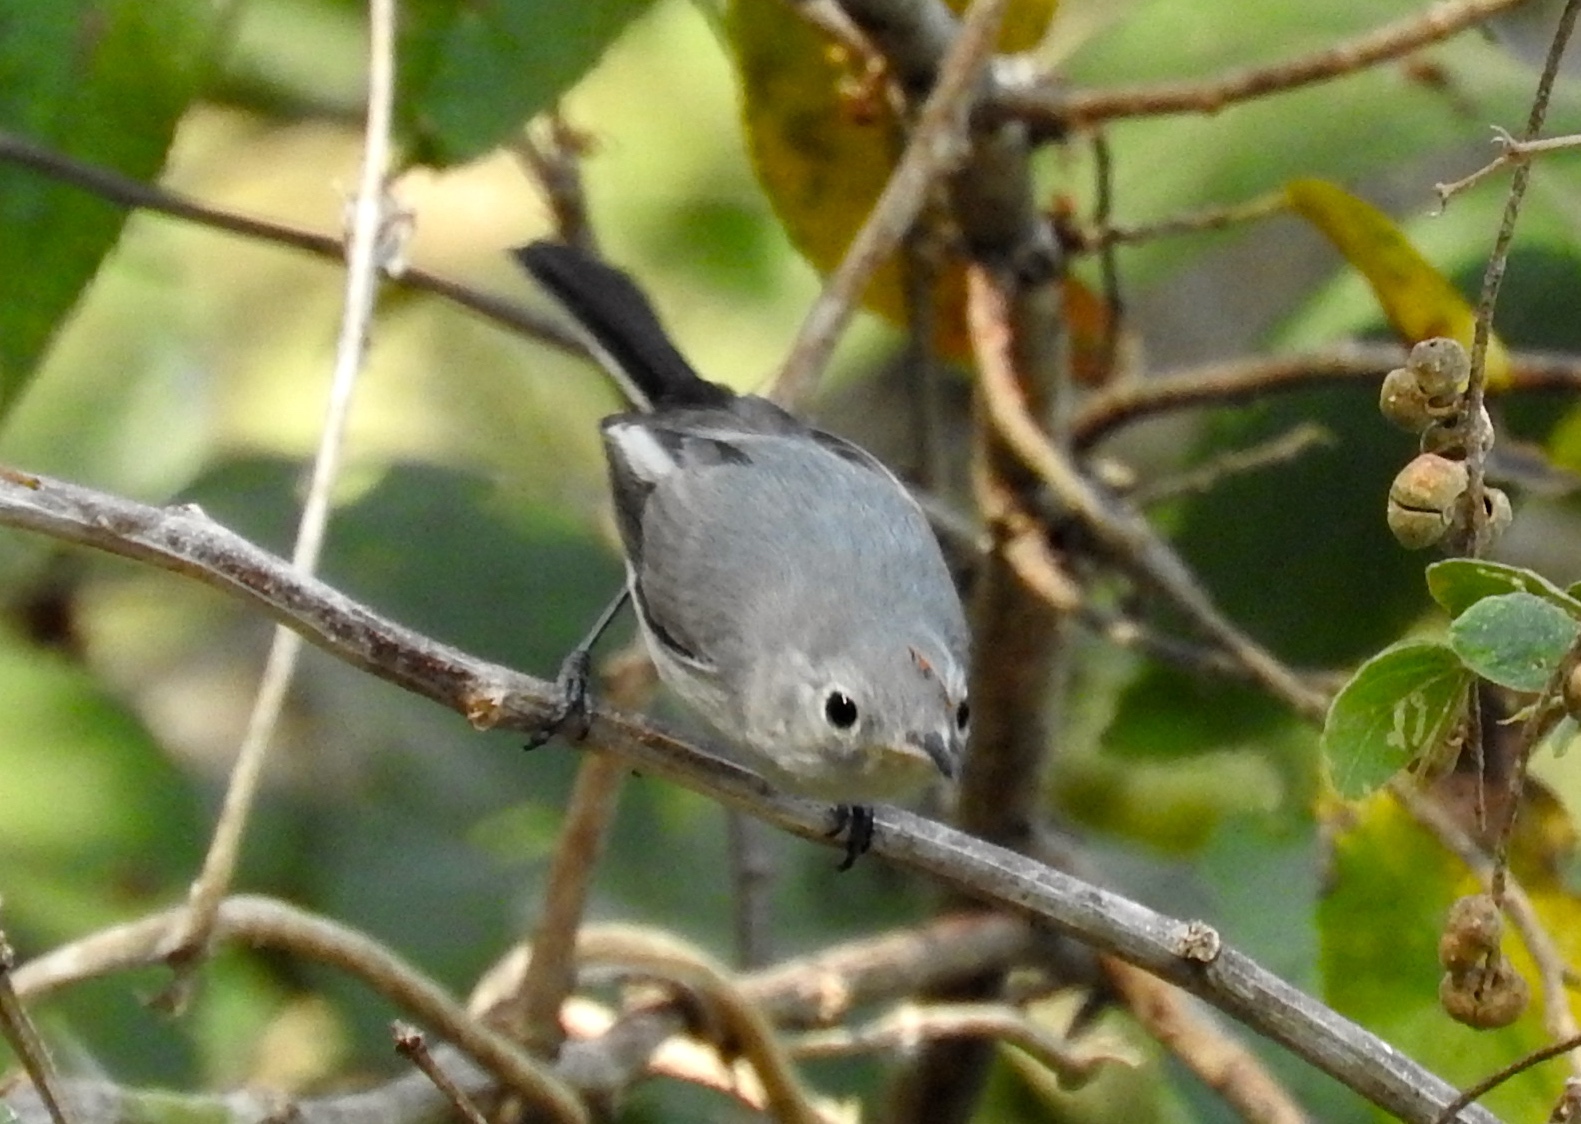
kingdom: Animalia
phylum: Chordata
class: Aves
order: Passeriformes
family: Polioptilidae
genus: Polioptila
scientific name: Polioptila caerulea
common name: Blue-gray gnatcatcher
